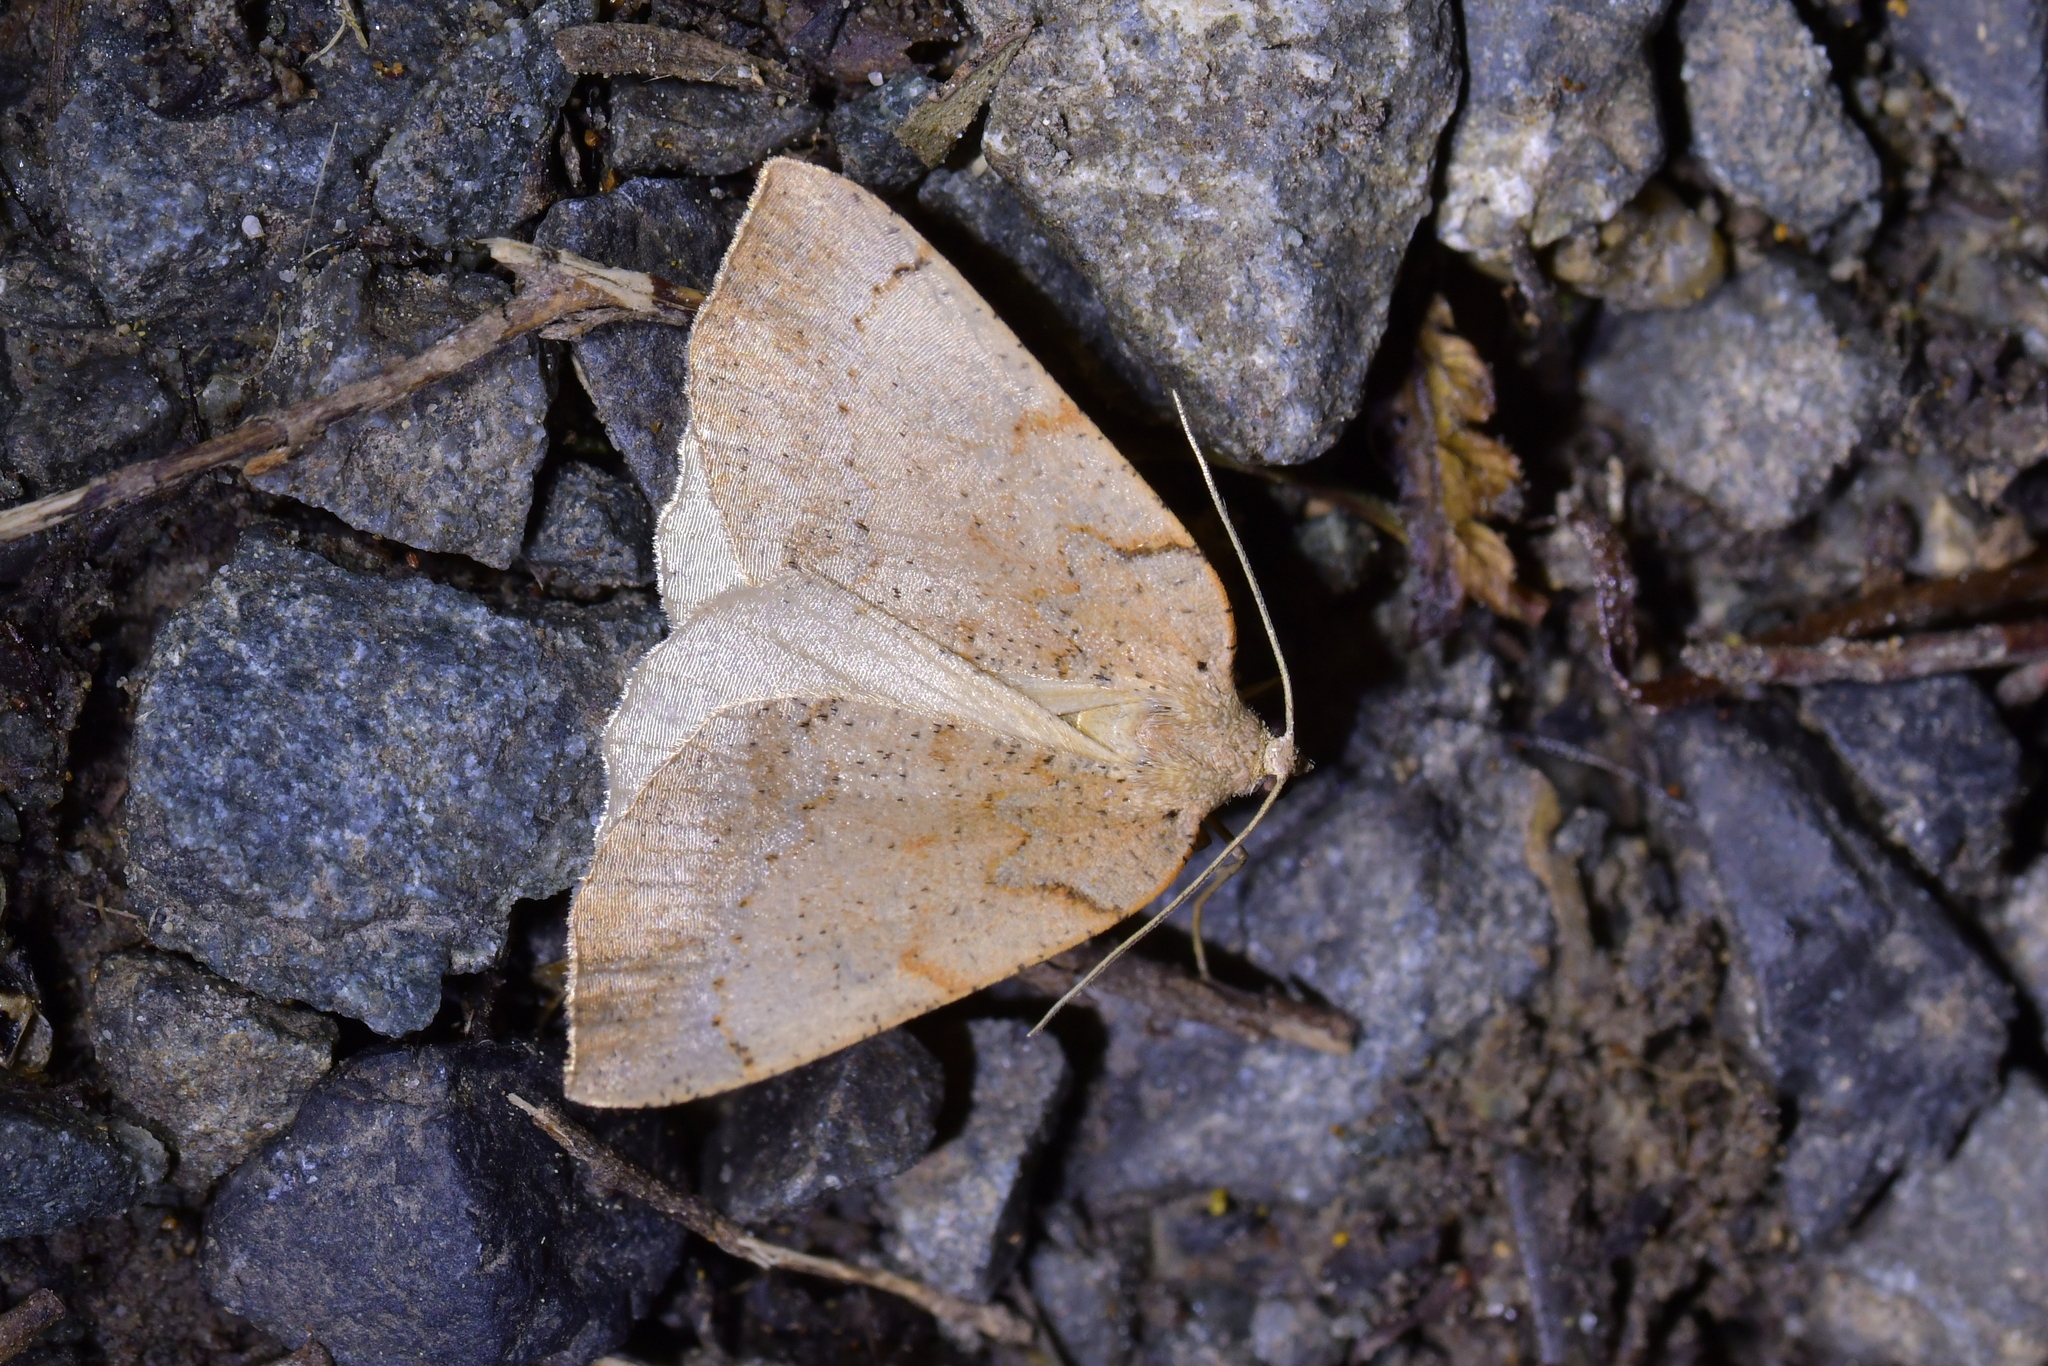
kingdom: Animalia
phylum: Arthropoda
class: Insecta
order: Lepidoptera
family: Geometridae
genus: Sestra
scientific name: Sestra humeraria
